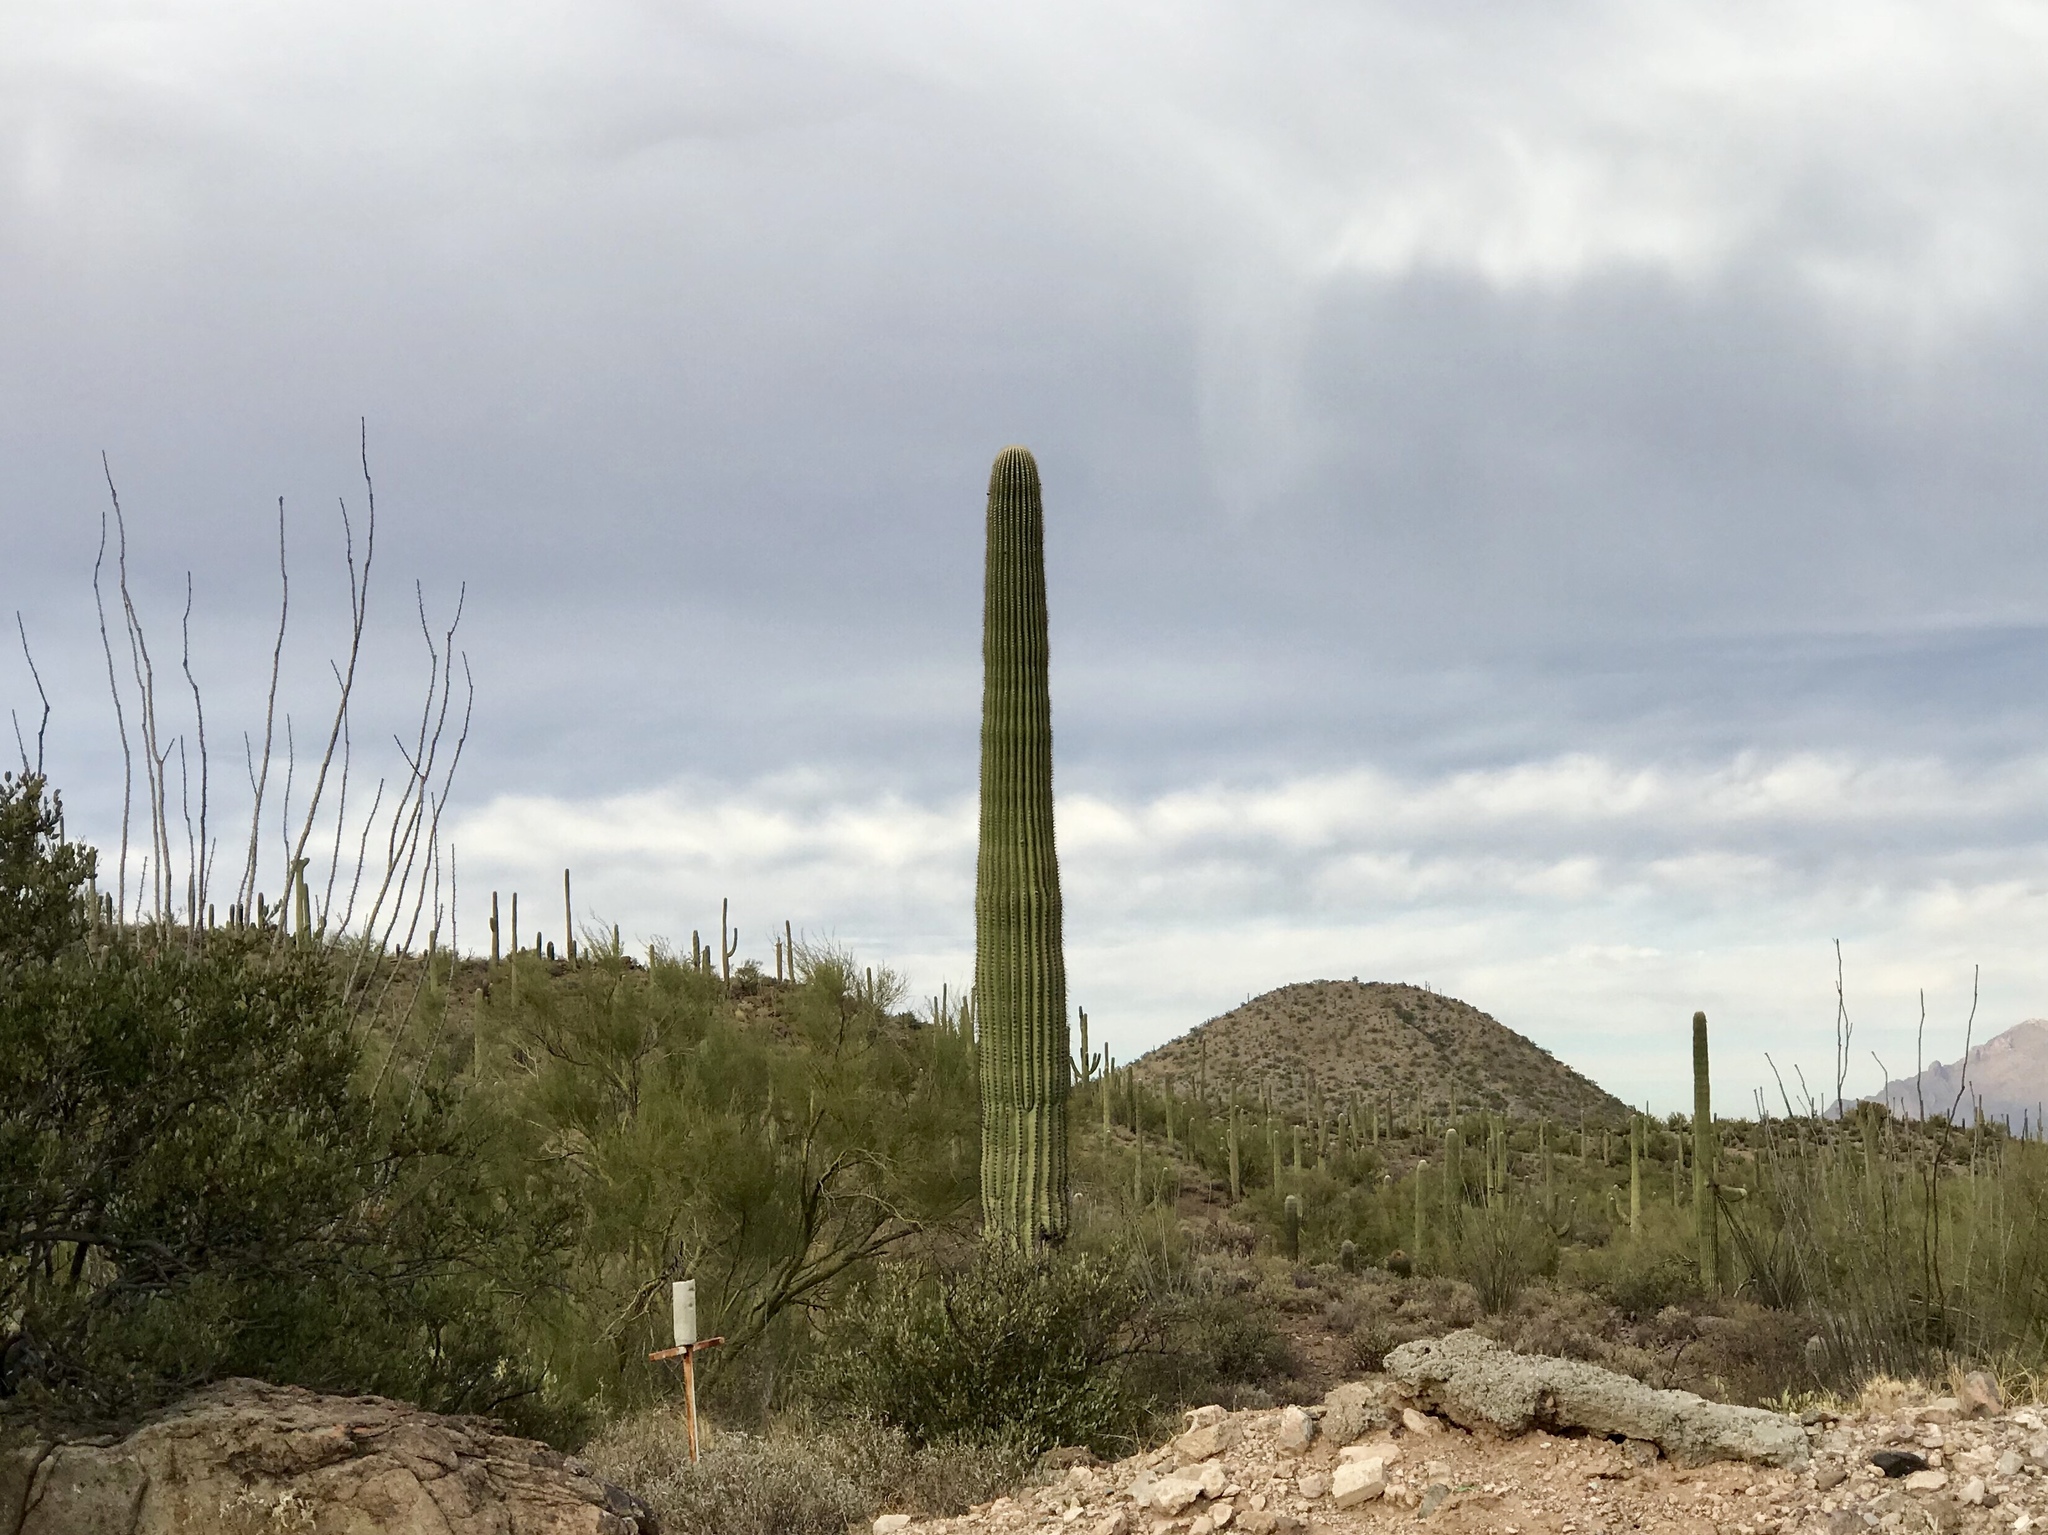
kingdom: Plantae
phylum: Tracheophyta
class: Magnoliopsida
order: Caryophyllales
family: Cactaceae
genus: Carnegiea
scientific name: Carnegiea gigantea
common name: Saguaro
